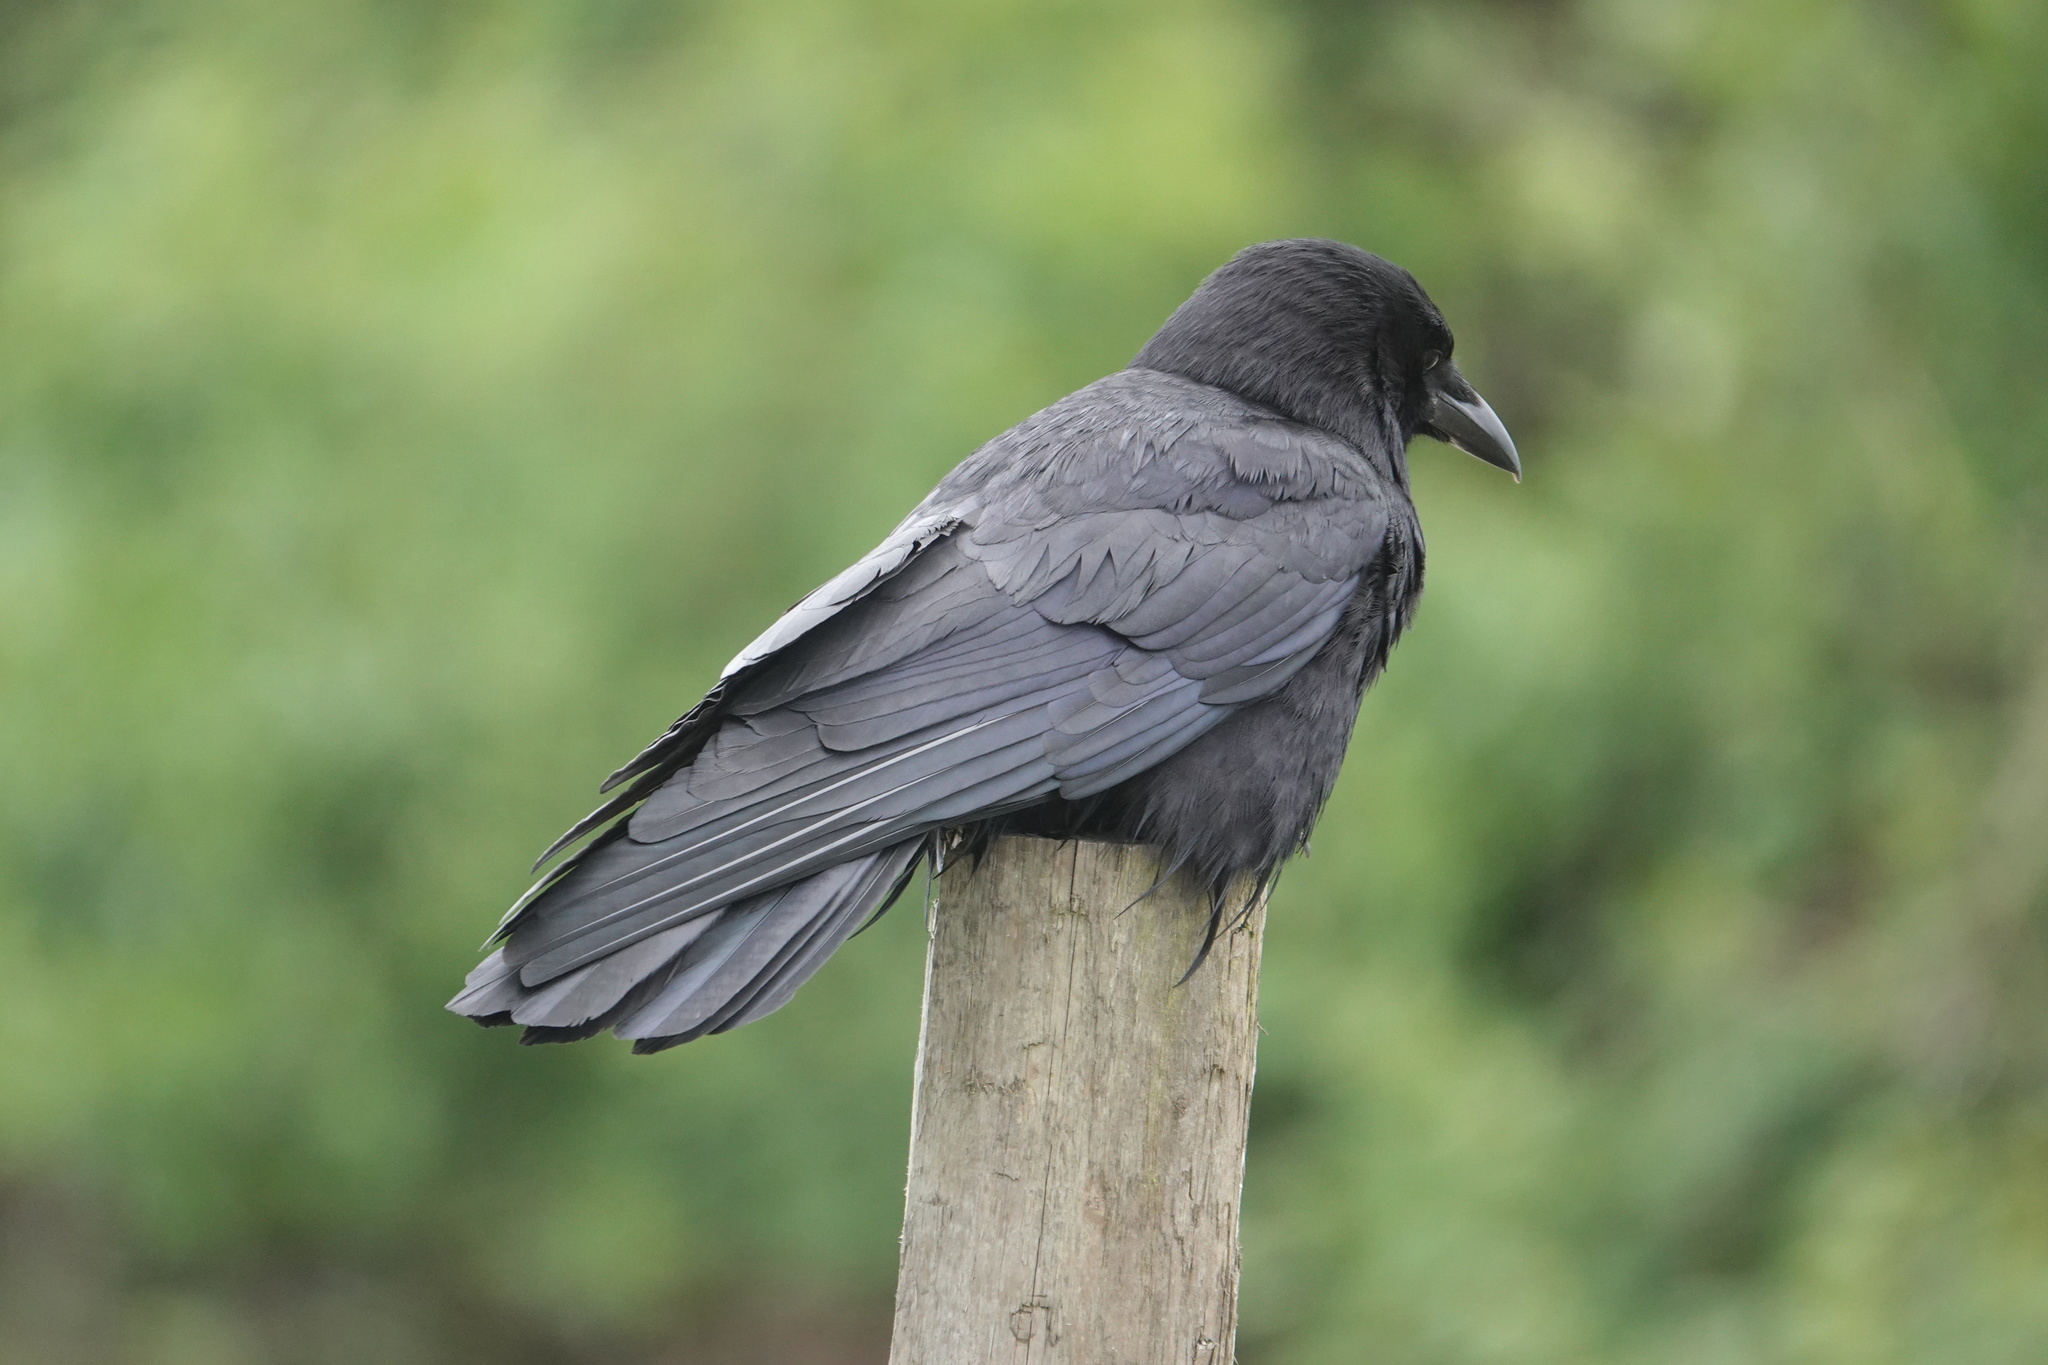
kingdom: Animalia
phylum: Chordata
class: Aves
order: Passeriformes
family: Corvidae
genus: Corvus
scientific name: Corvus brachyrhynchos
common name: American crow
